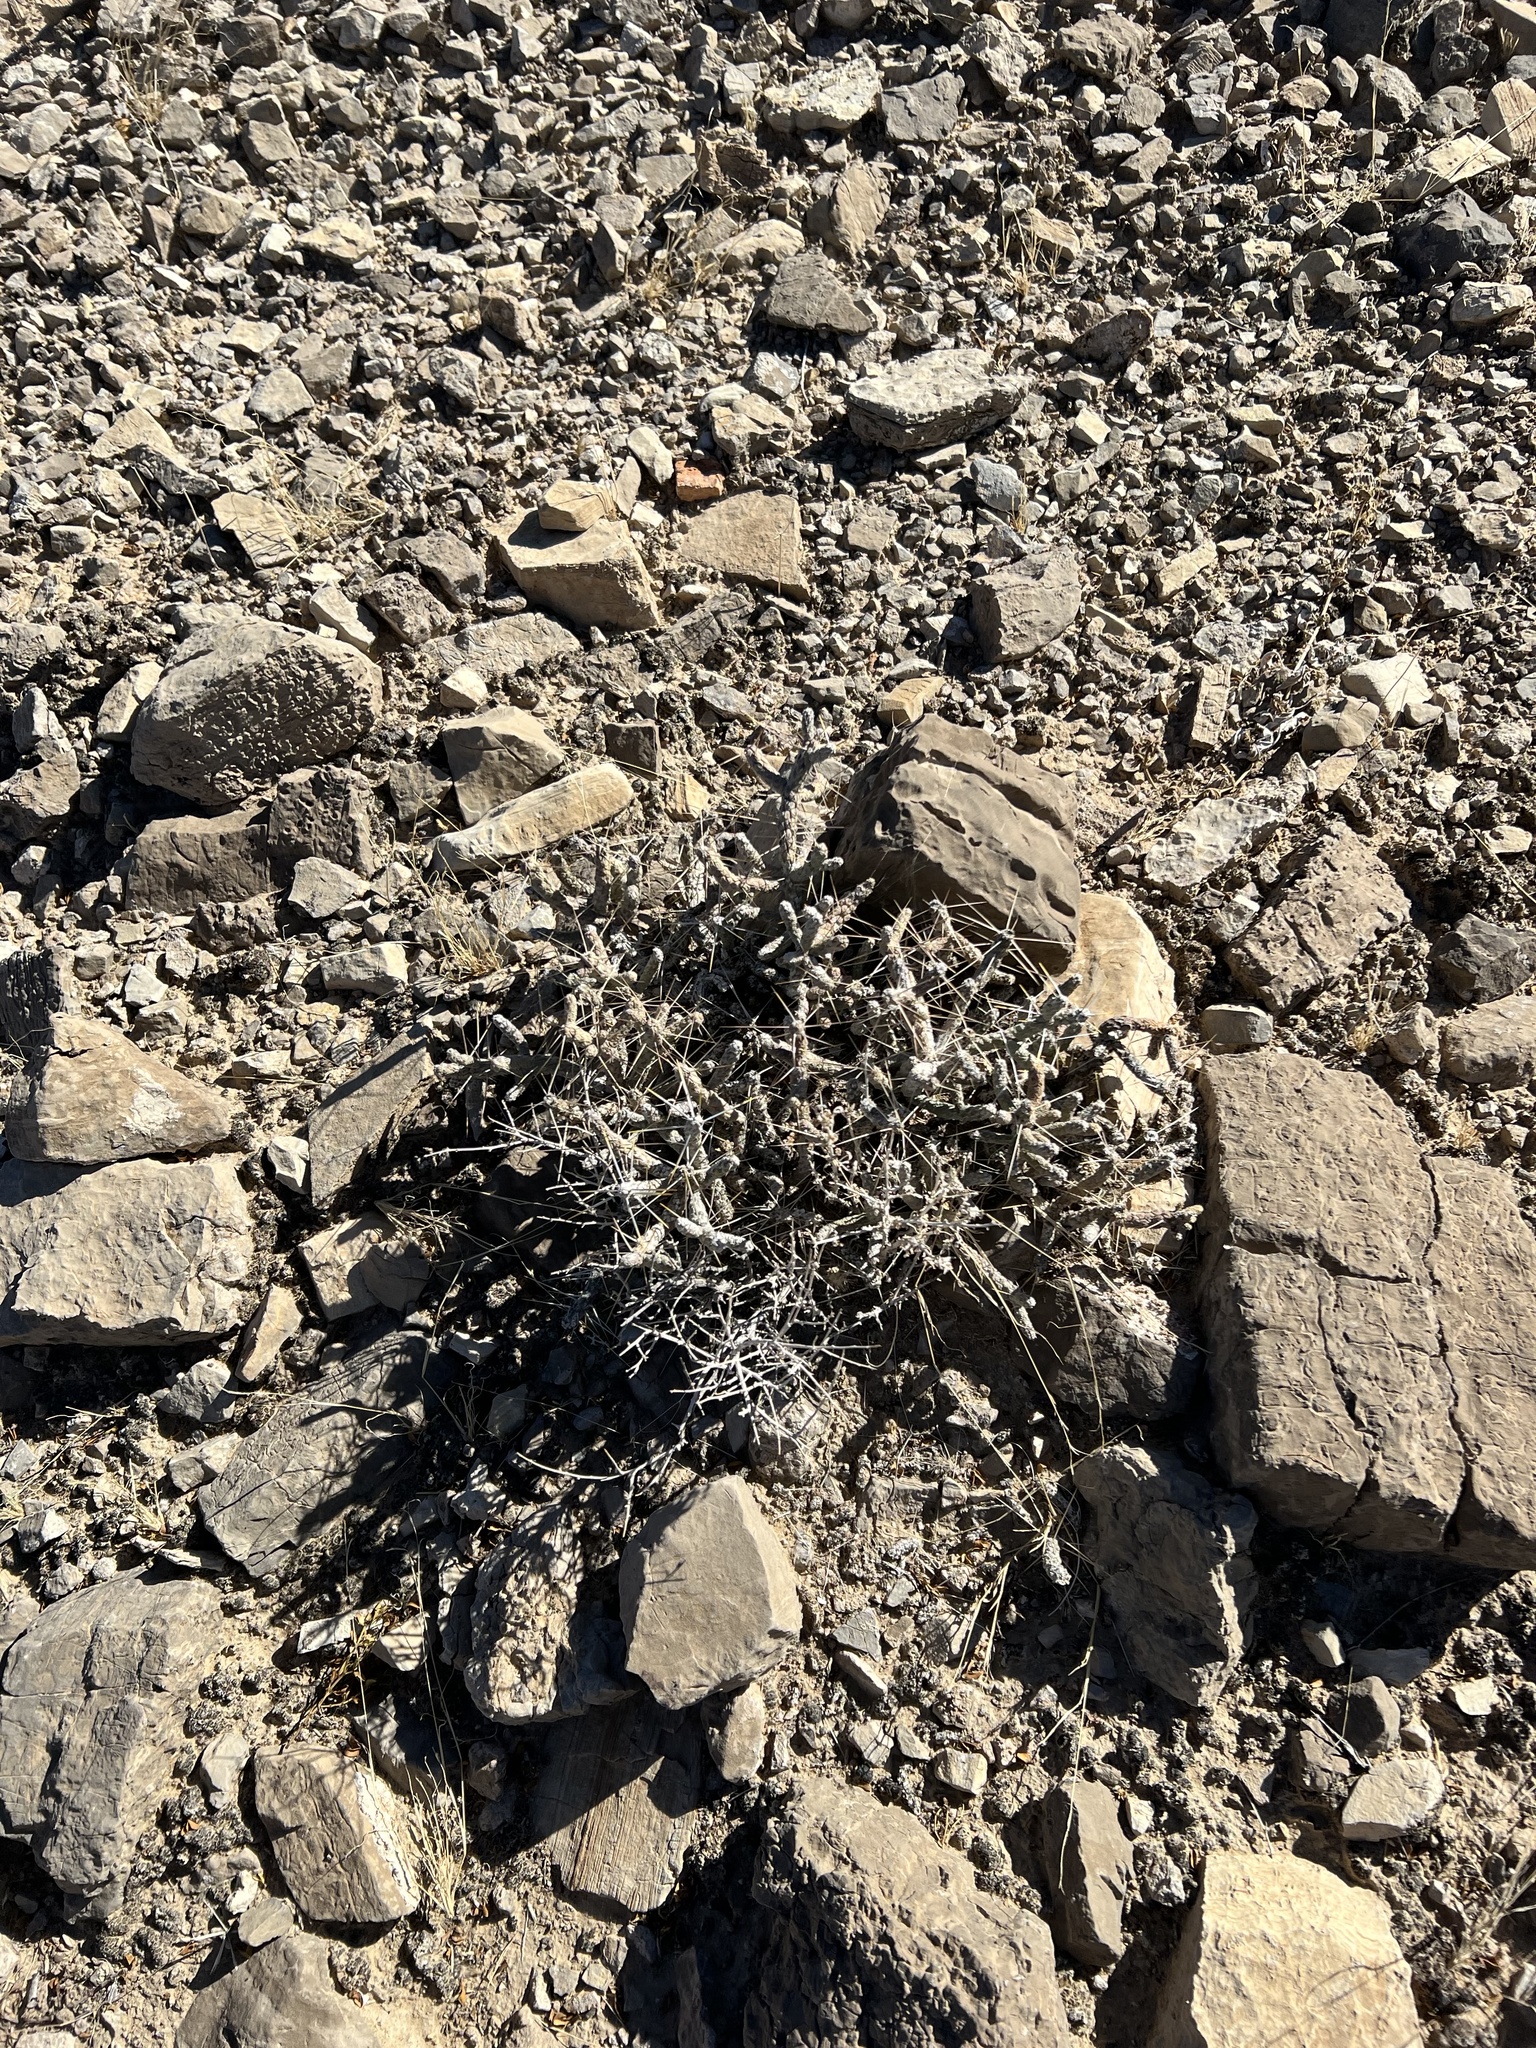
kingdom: Plantae
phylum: Tracheophyta
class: Magnoliopsida
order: Caryophyllales
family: Cactaceae
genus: Cylindropuntia
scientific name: Cylindropuntia ramosissima
